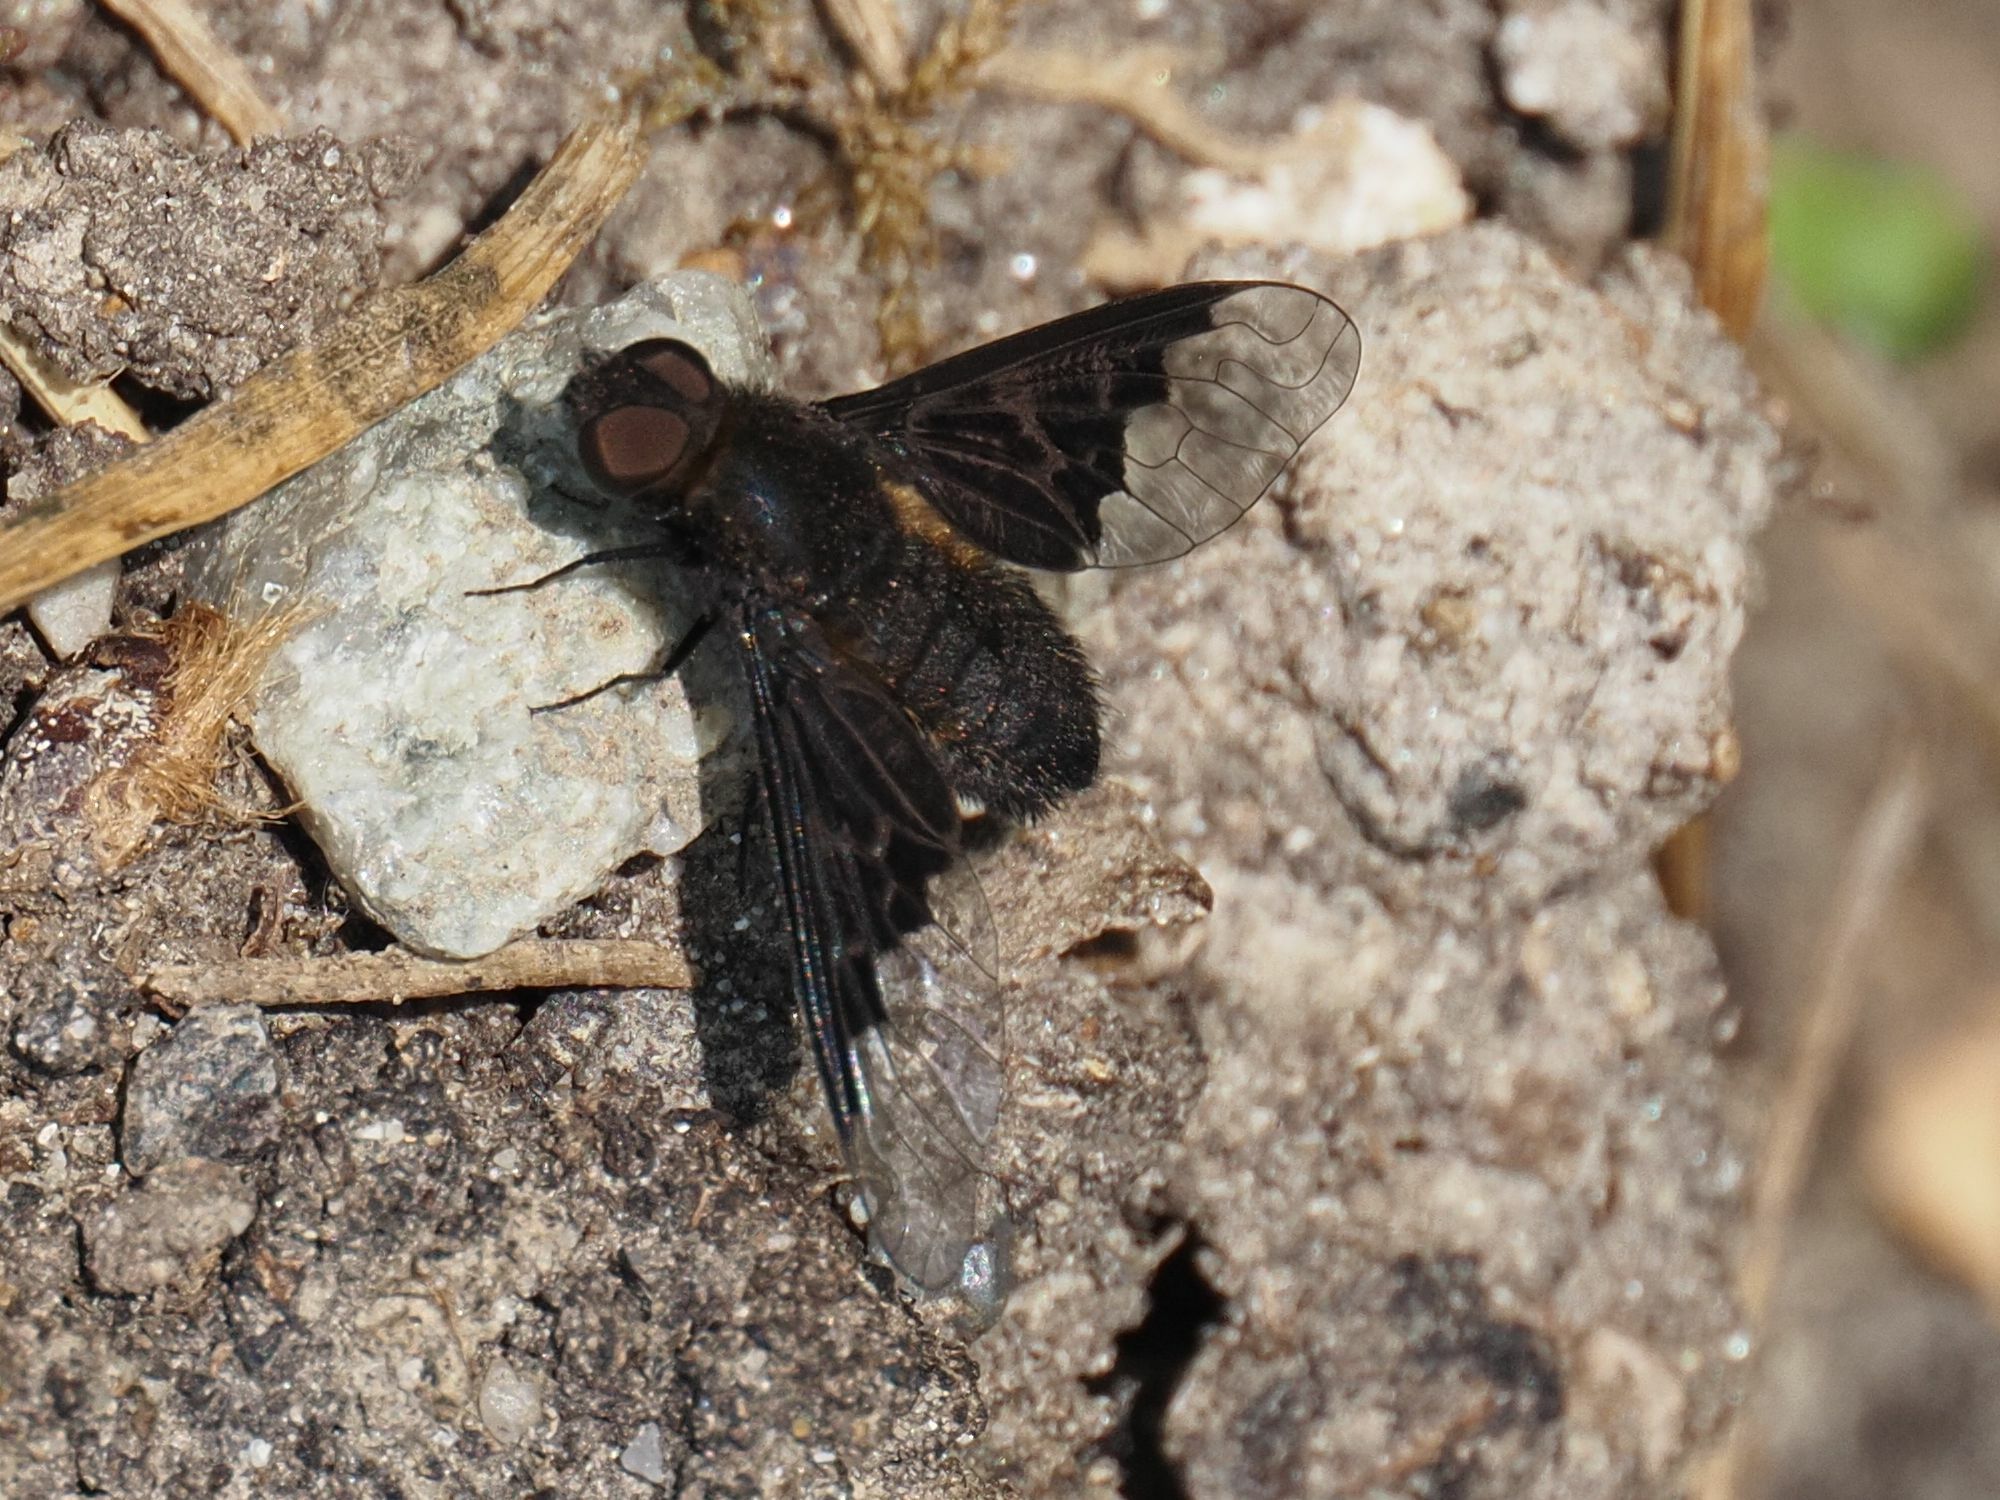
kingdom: Animalia
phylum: Arthropoda
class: Insecta
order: Diptera
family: Bombyliidae
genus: Hemipenthes
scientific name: Hemipenthes morio
